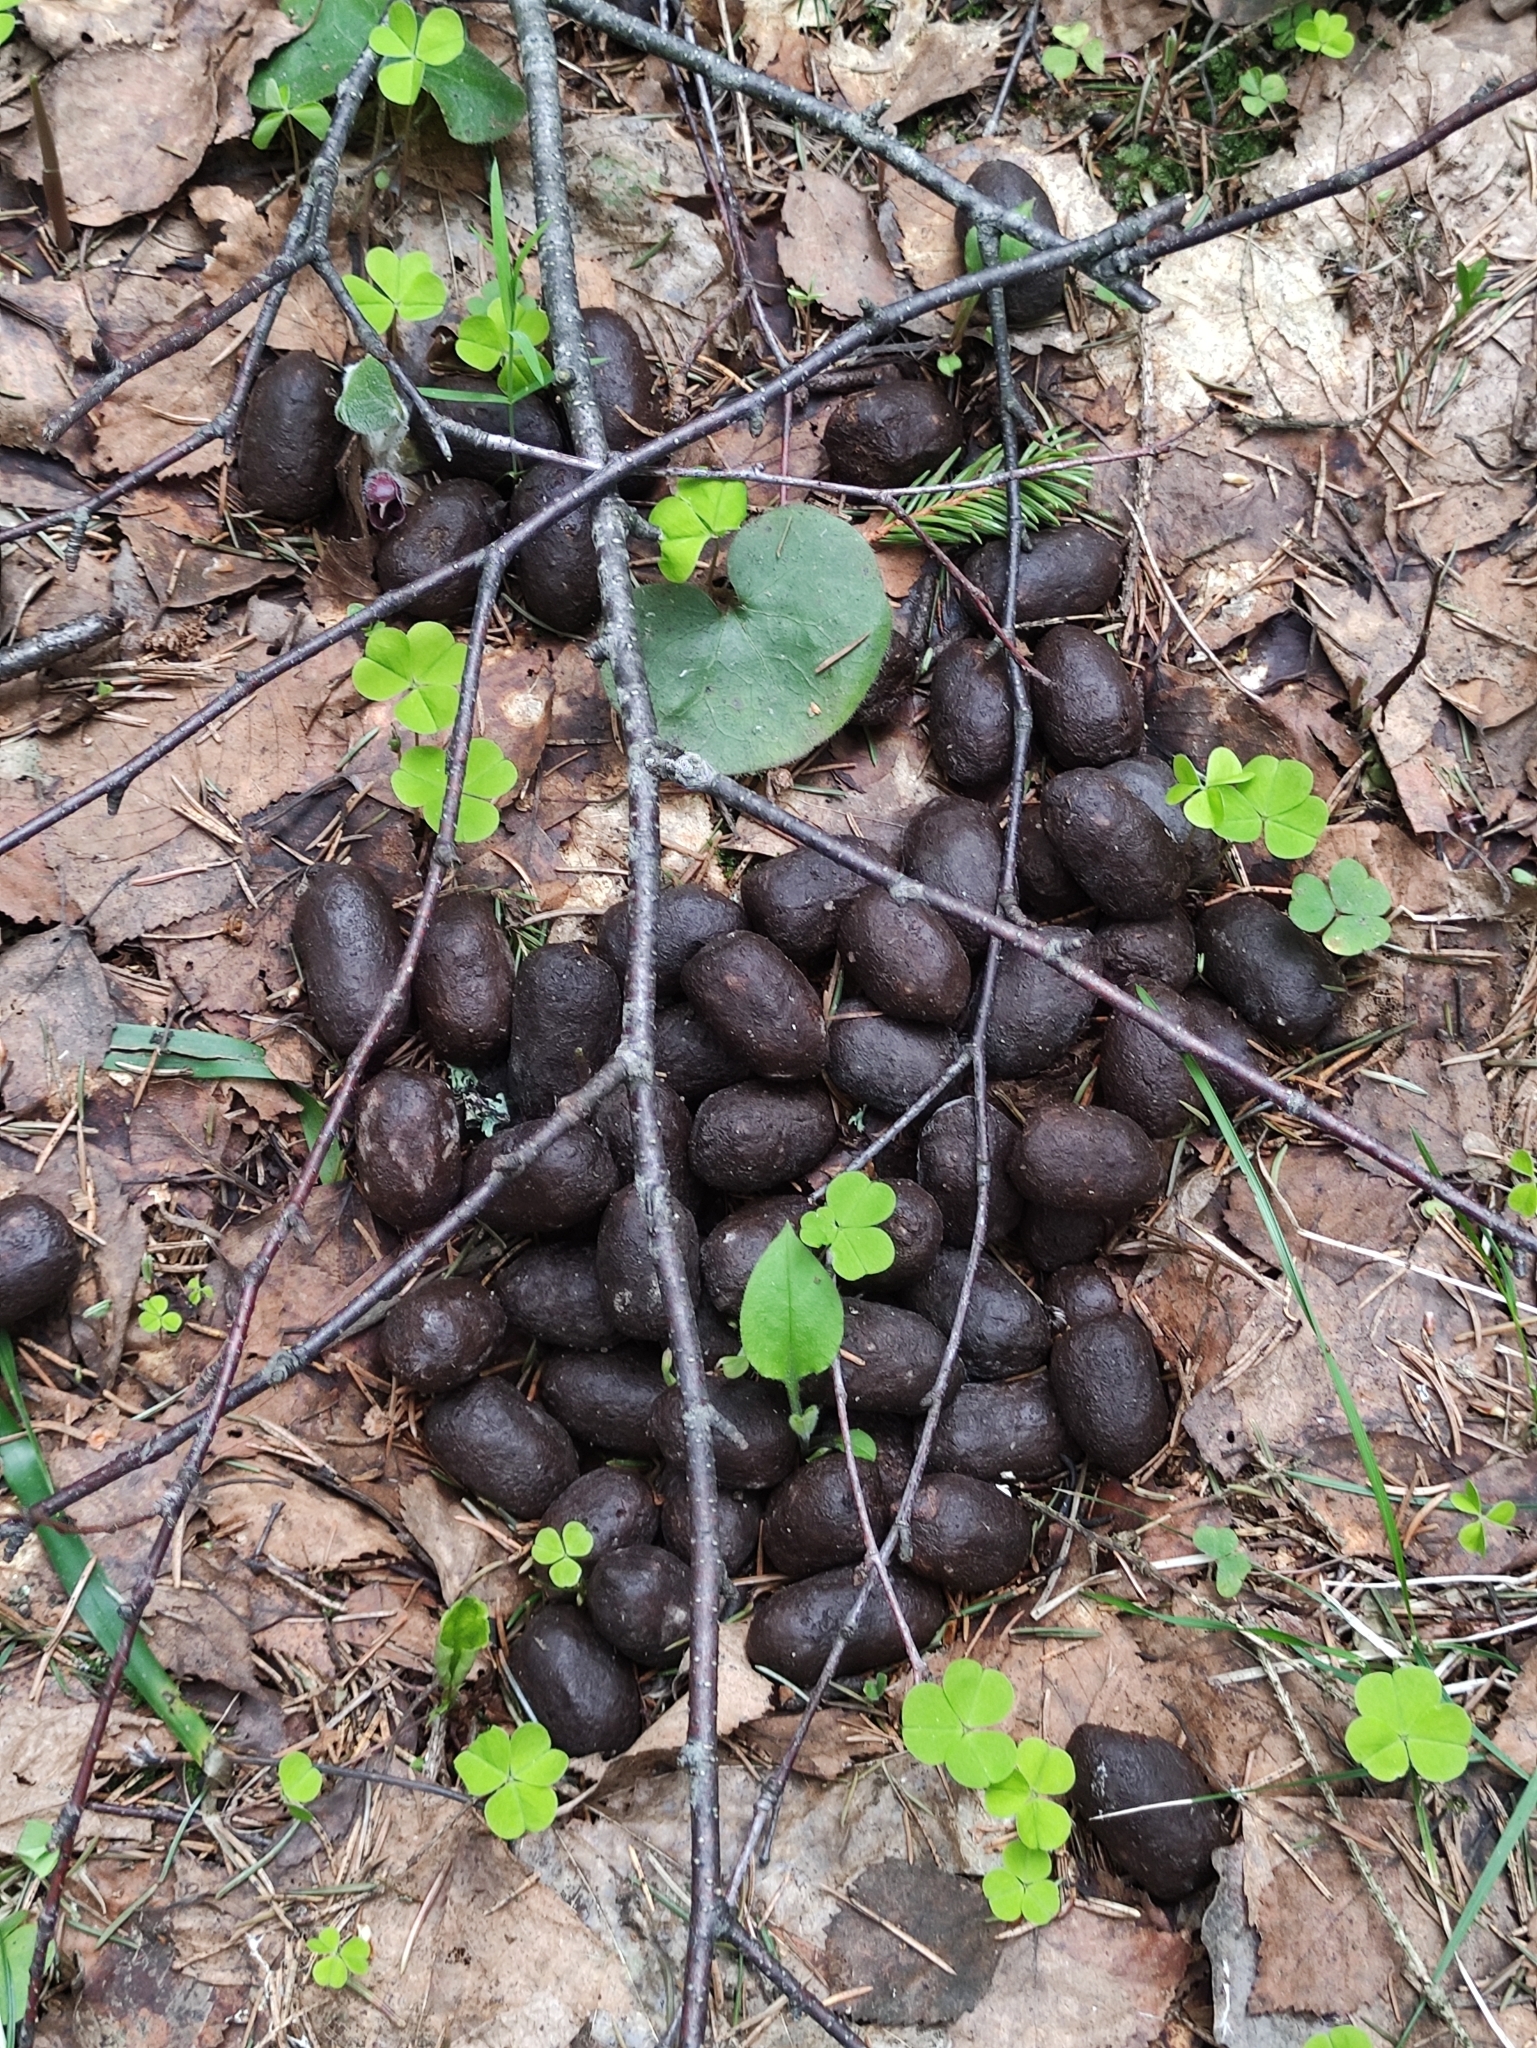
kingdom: Animalia
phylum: Chordata
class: Mammalia
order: Artiodactyla
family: Cervidae
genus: Alces
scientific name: Alces alces
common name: Moose
